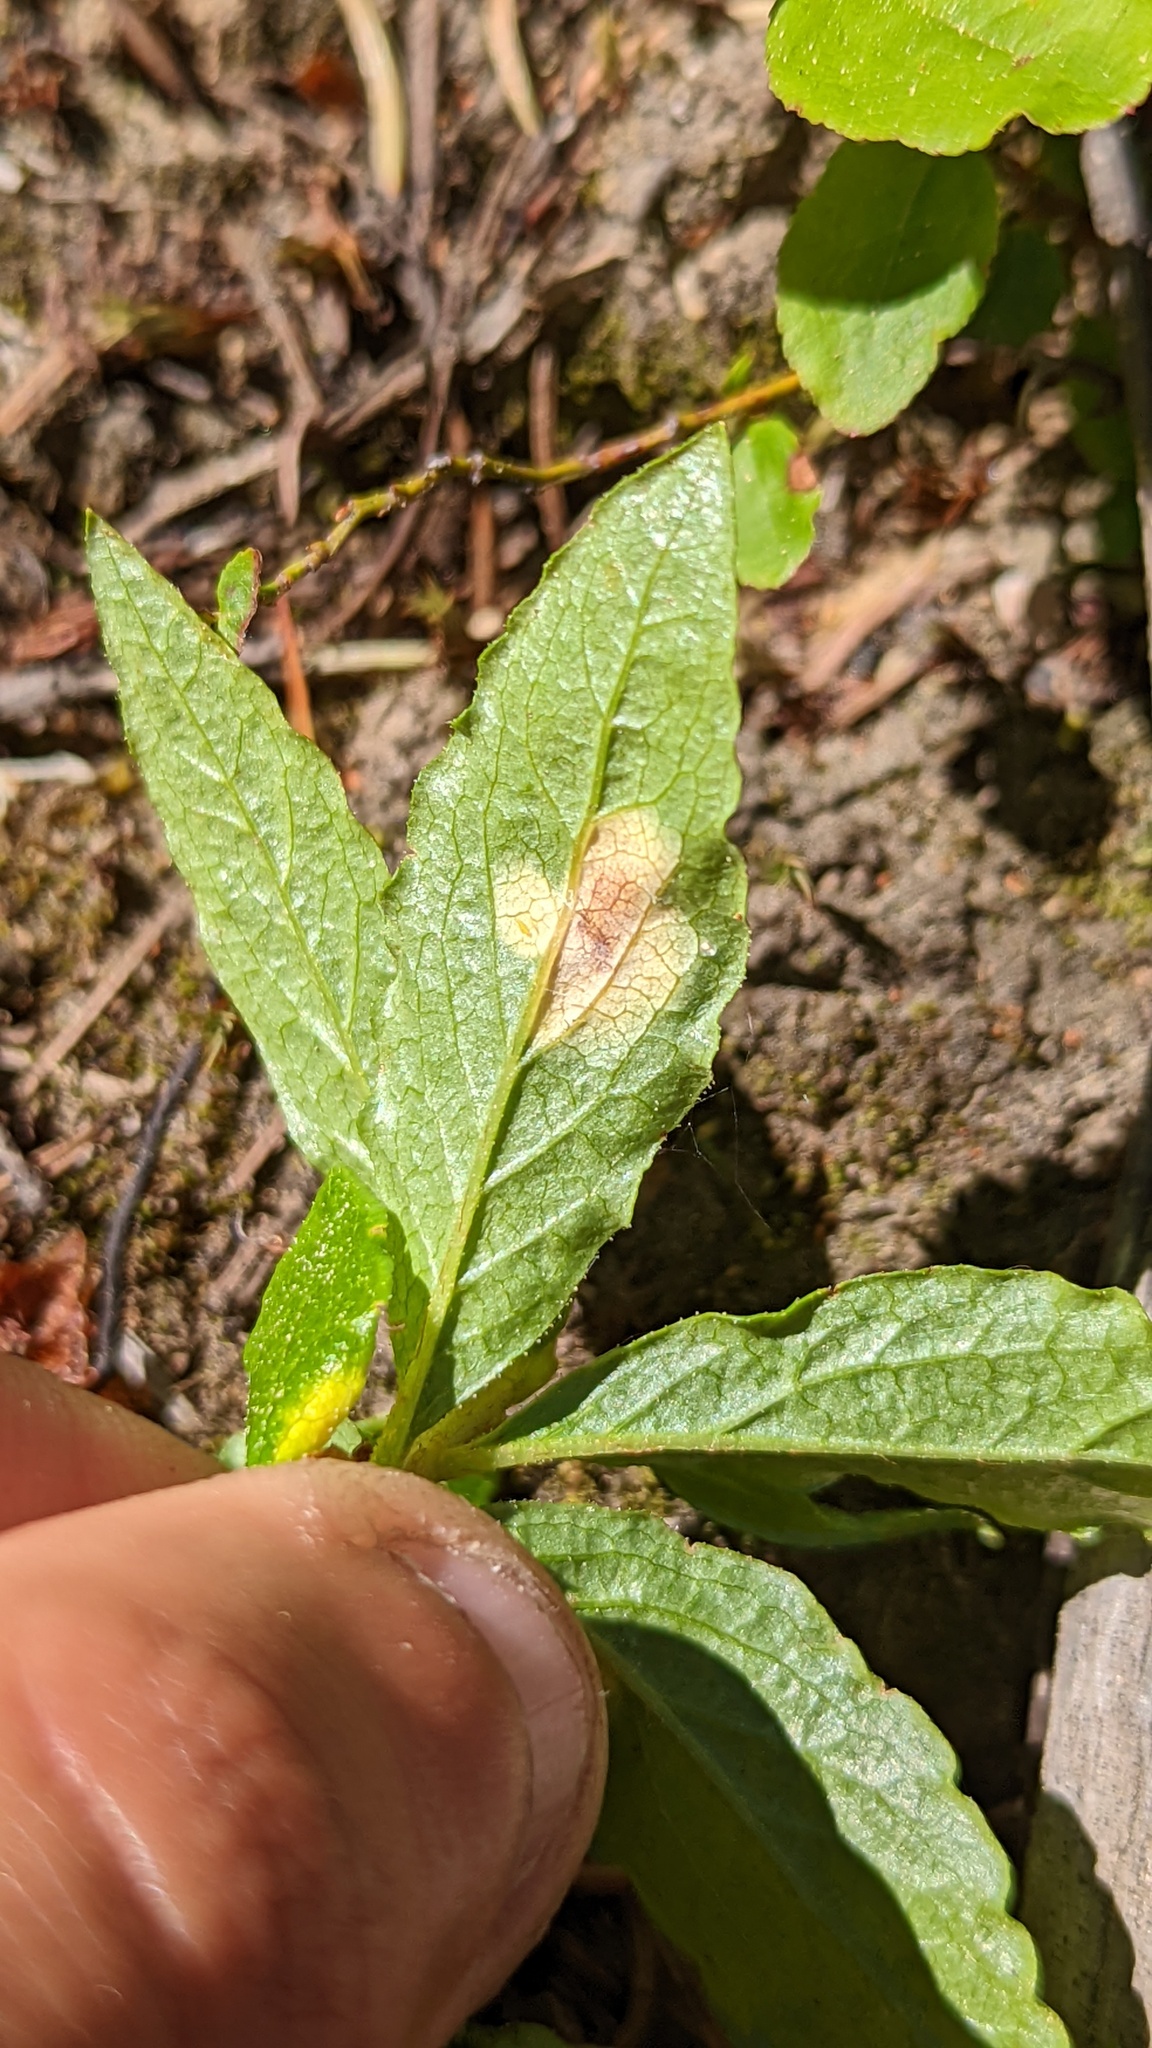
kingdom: Plantae
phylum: Tracheophyta
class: Magnoliopsida
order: Ericales
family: Ericaceae
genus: Rhododendron
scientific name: Rhododendron albiflorum
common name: White rhododendron
